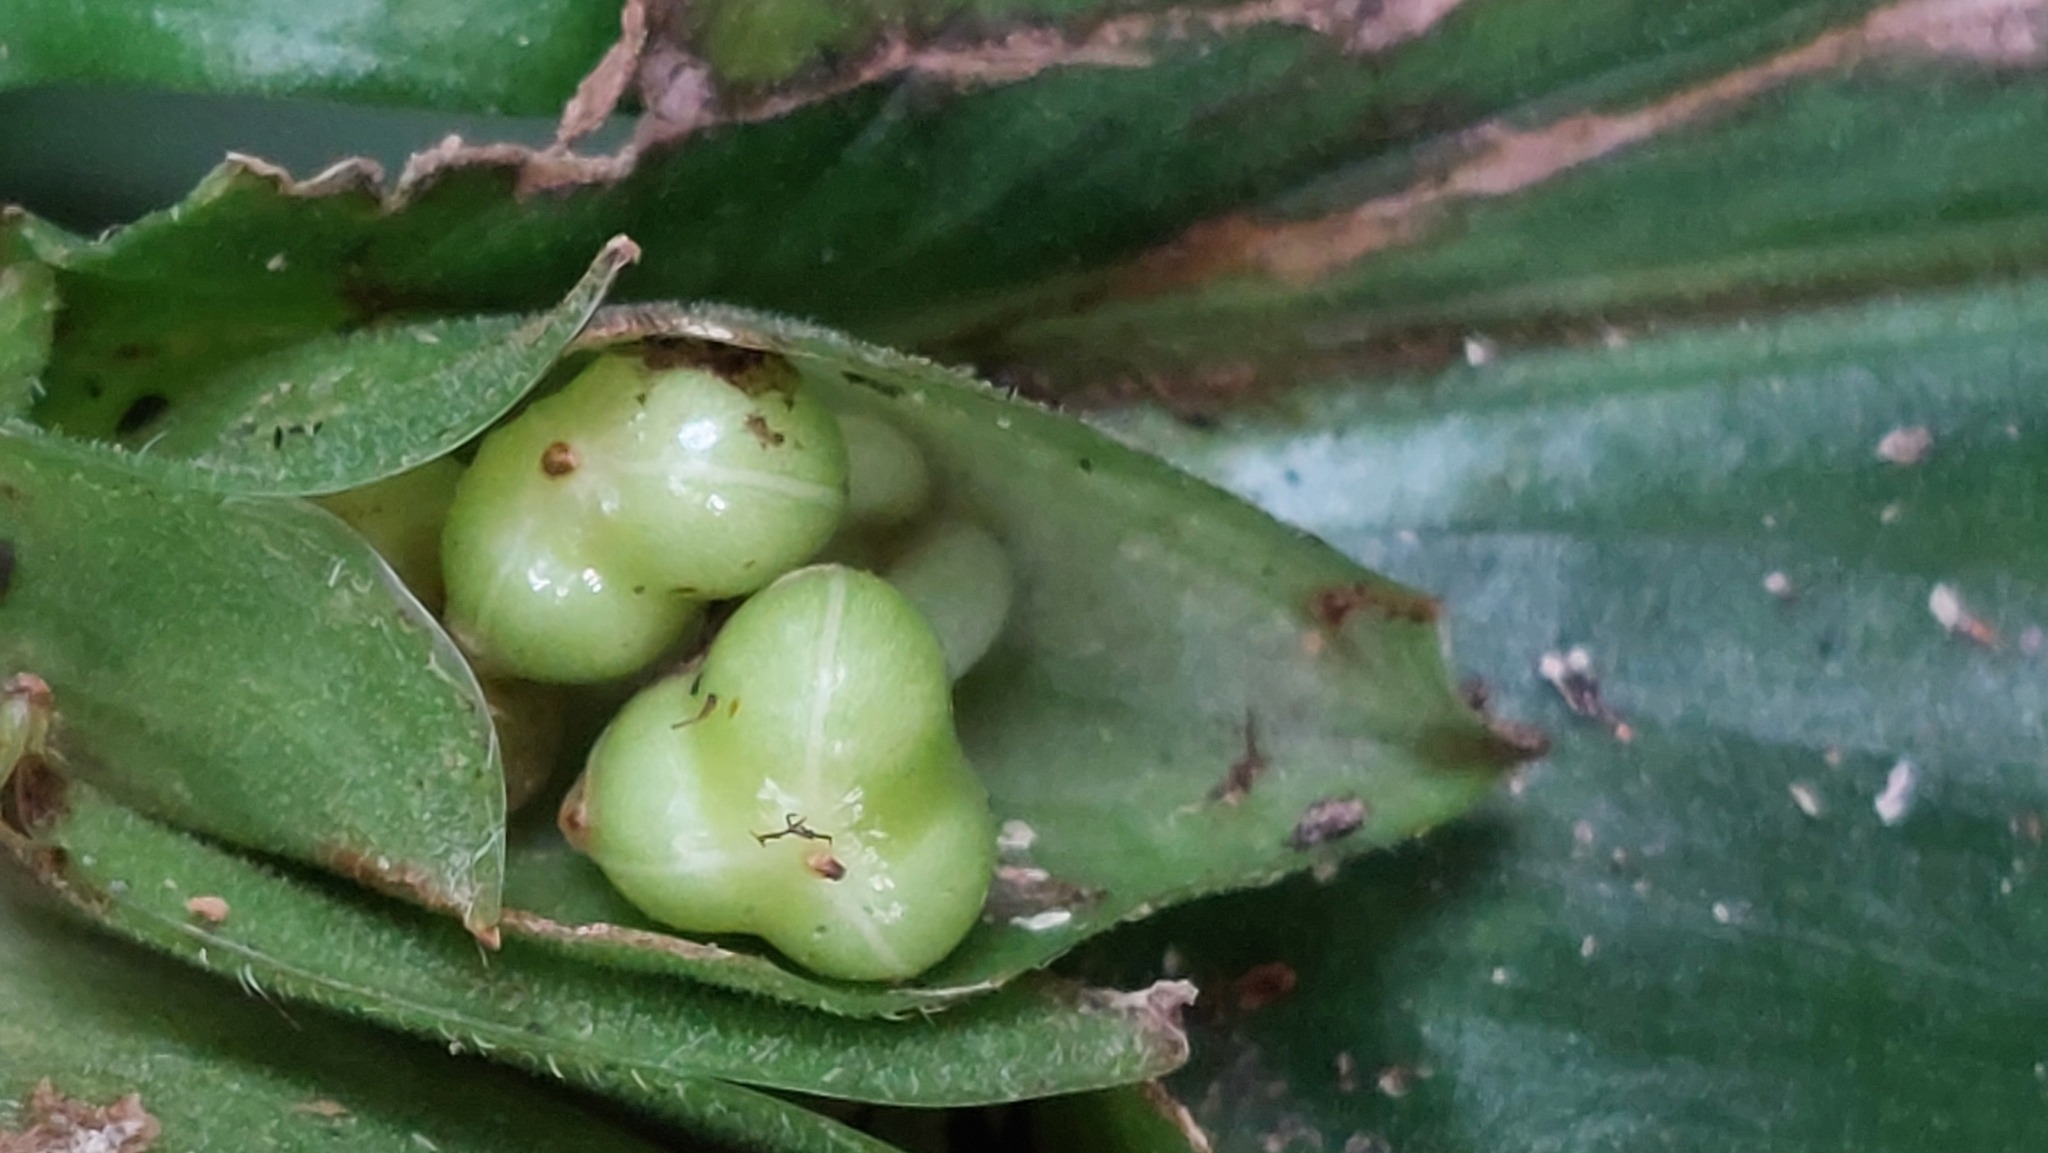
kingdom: Plantae
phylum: Tracheophyta
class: Liliopsida
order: Commelinales
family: Commelinaceae
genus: Commelina
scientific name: Commelina paludosa
